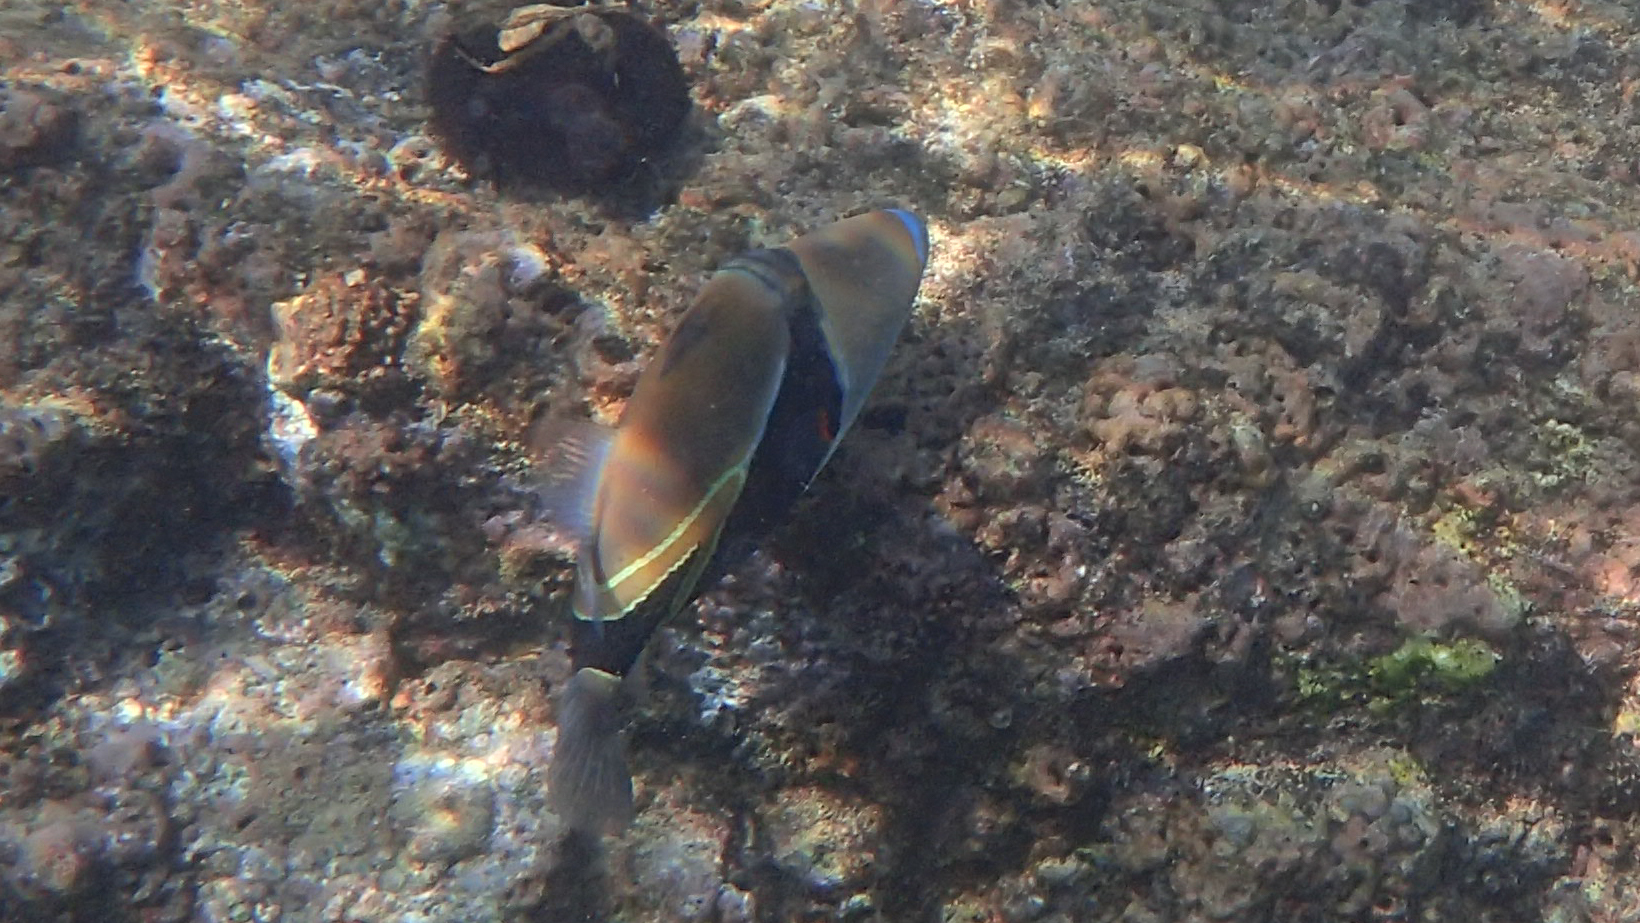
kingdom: Animalia
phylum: Chordata
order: Tetraodontiformes
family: Balistidae
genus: Rhinecanthus
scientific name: Rhinecanthus rectangulus
